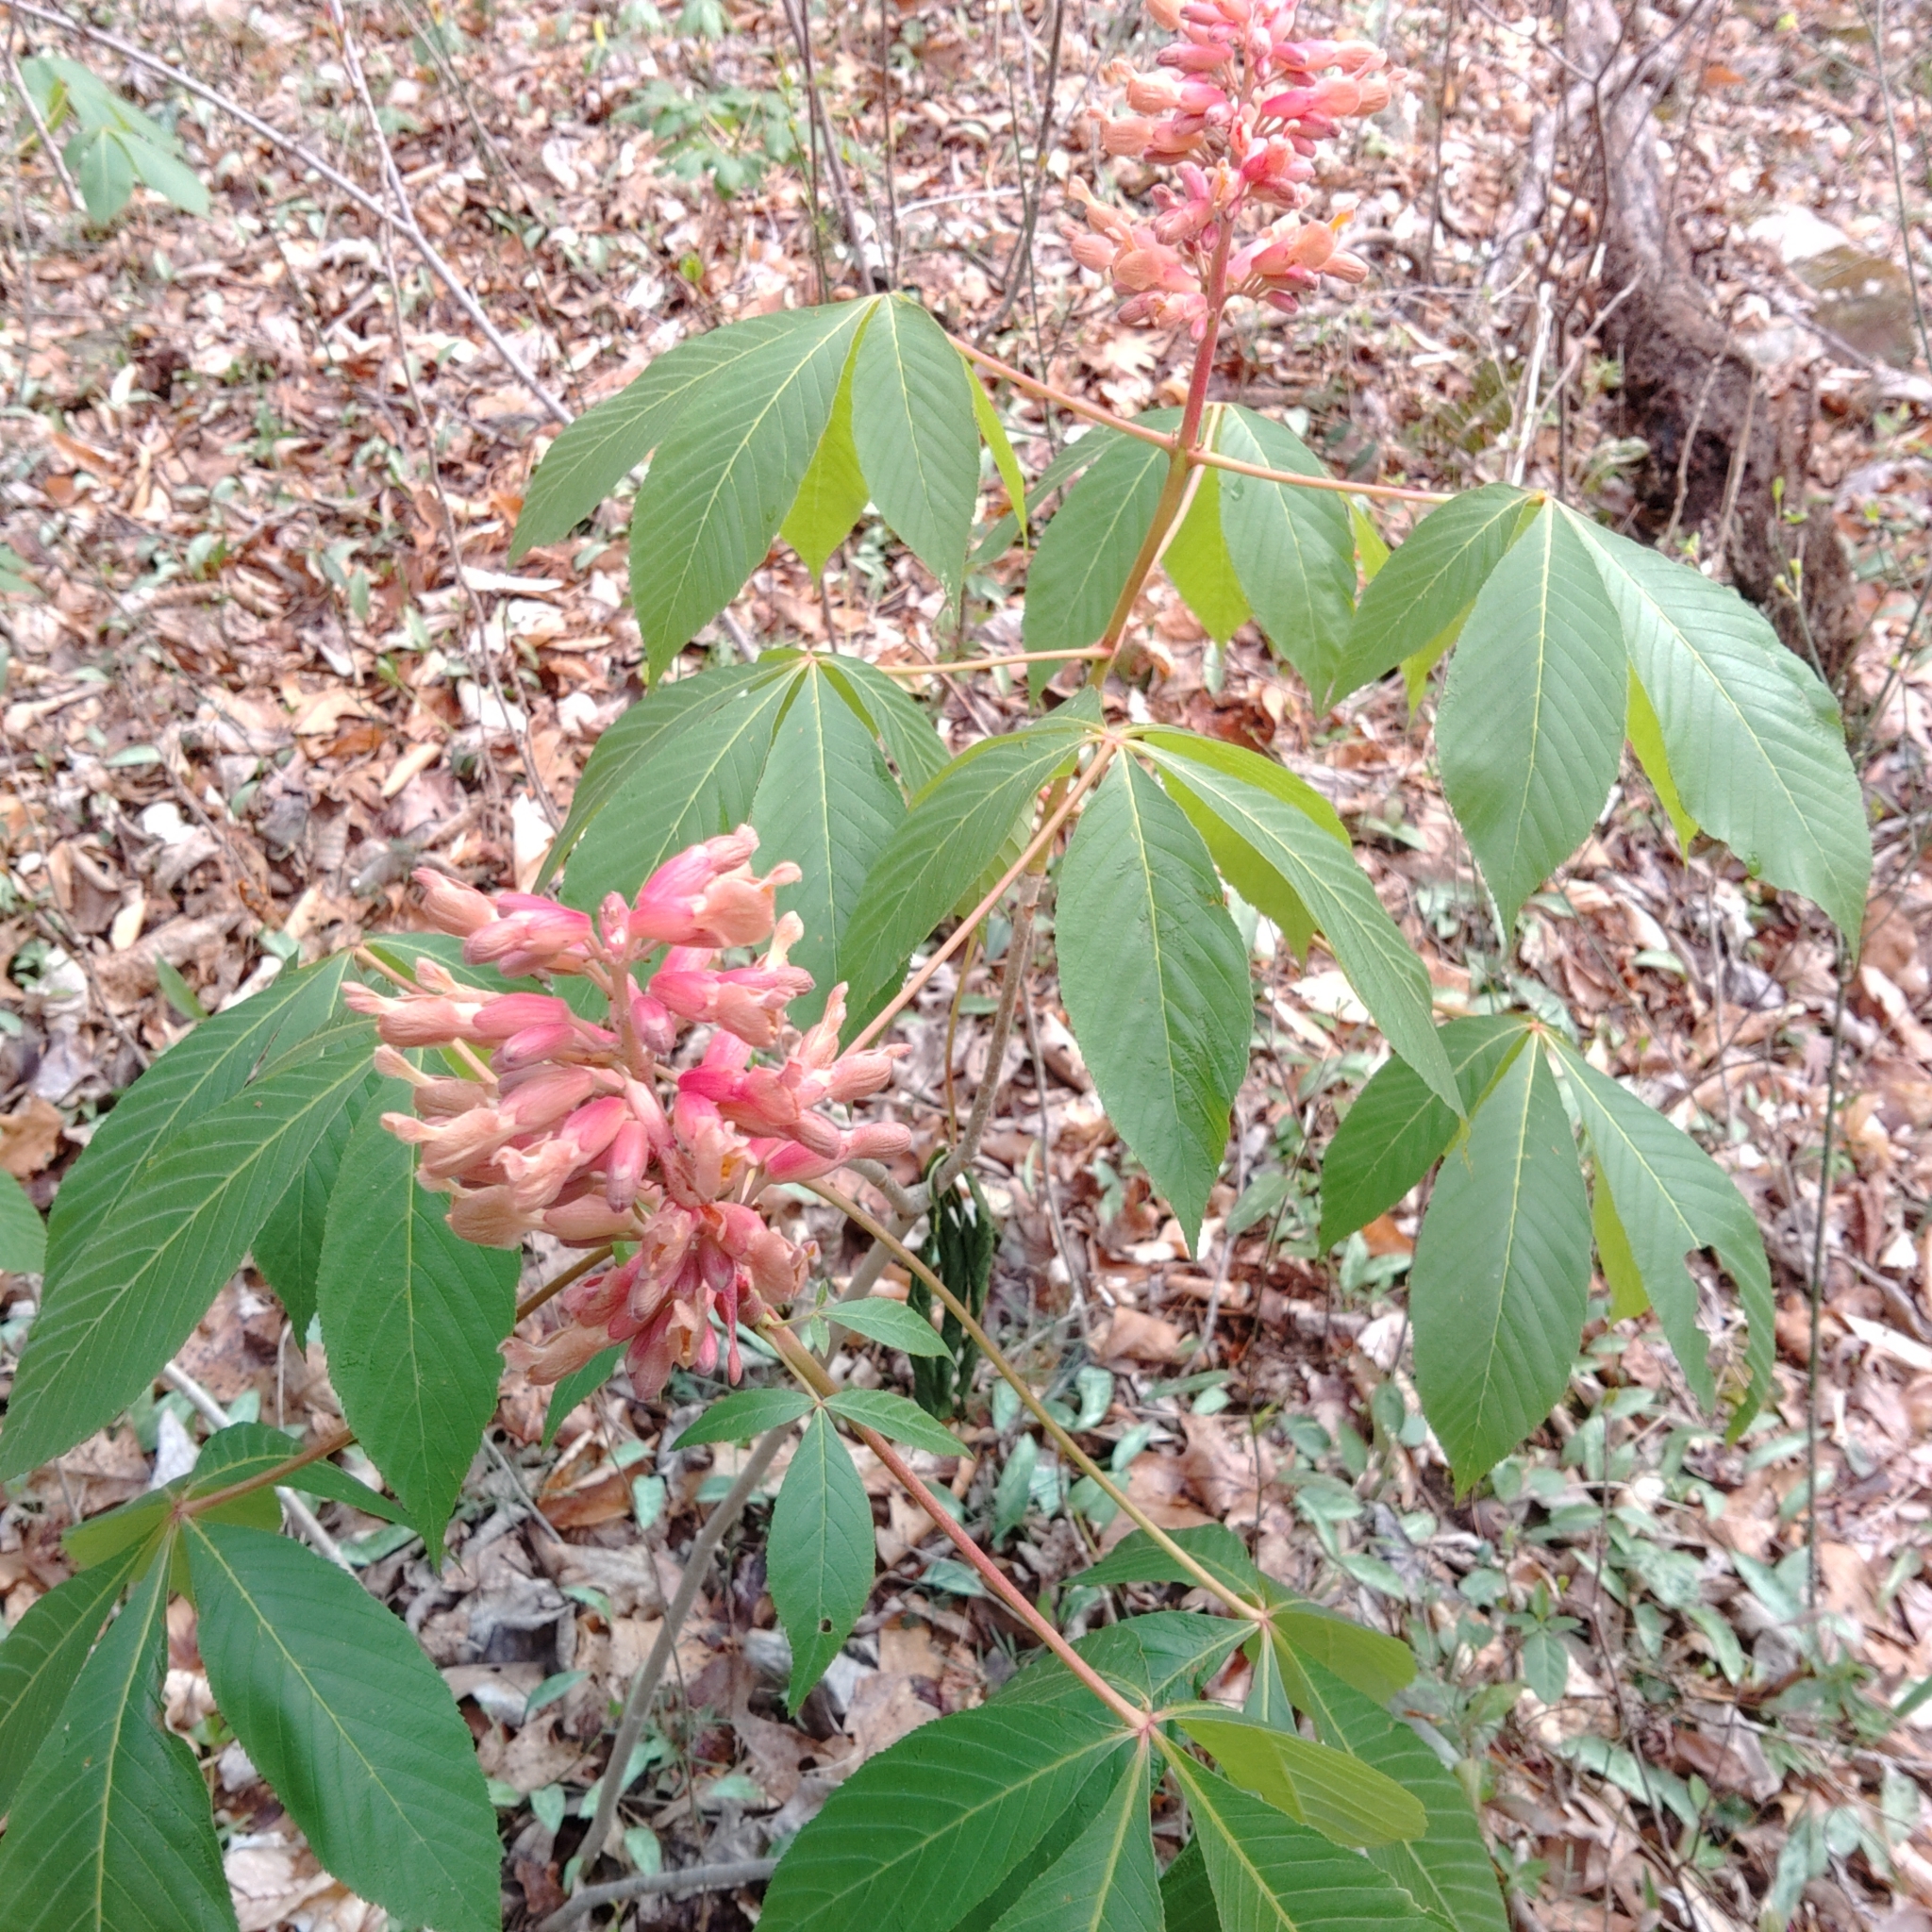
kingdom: Plantae
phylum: Tracheophyta
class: Magnoliopsida
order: Sapindales
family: Sapindaceae
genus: Aesculus
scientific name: Aesculus pavia
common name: Red buckeye
